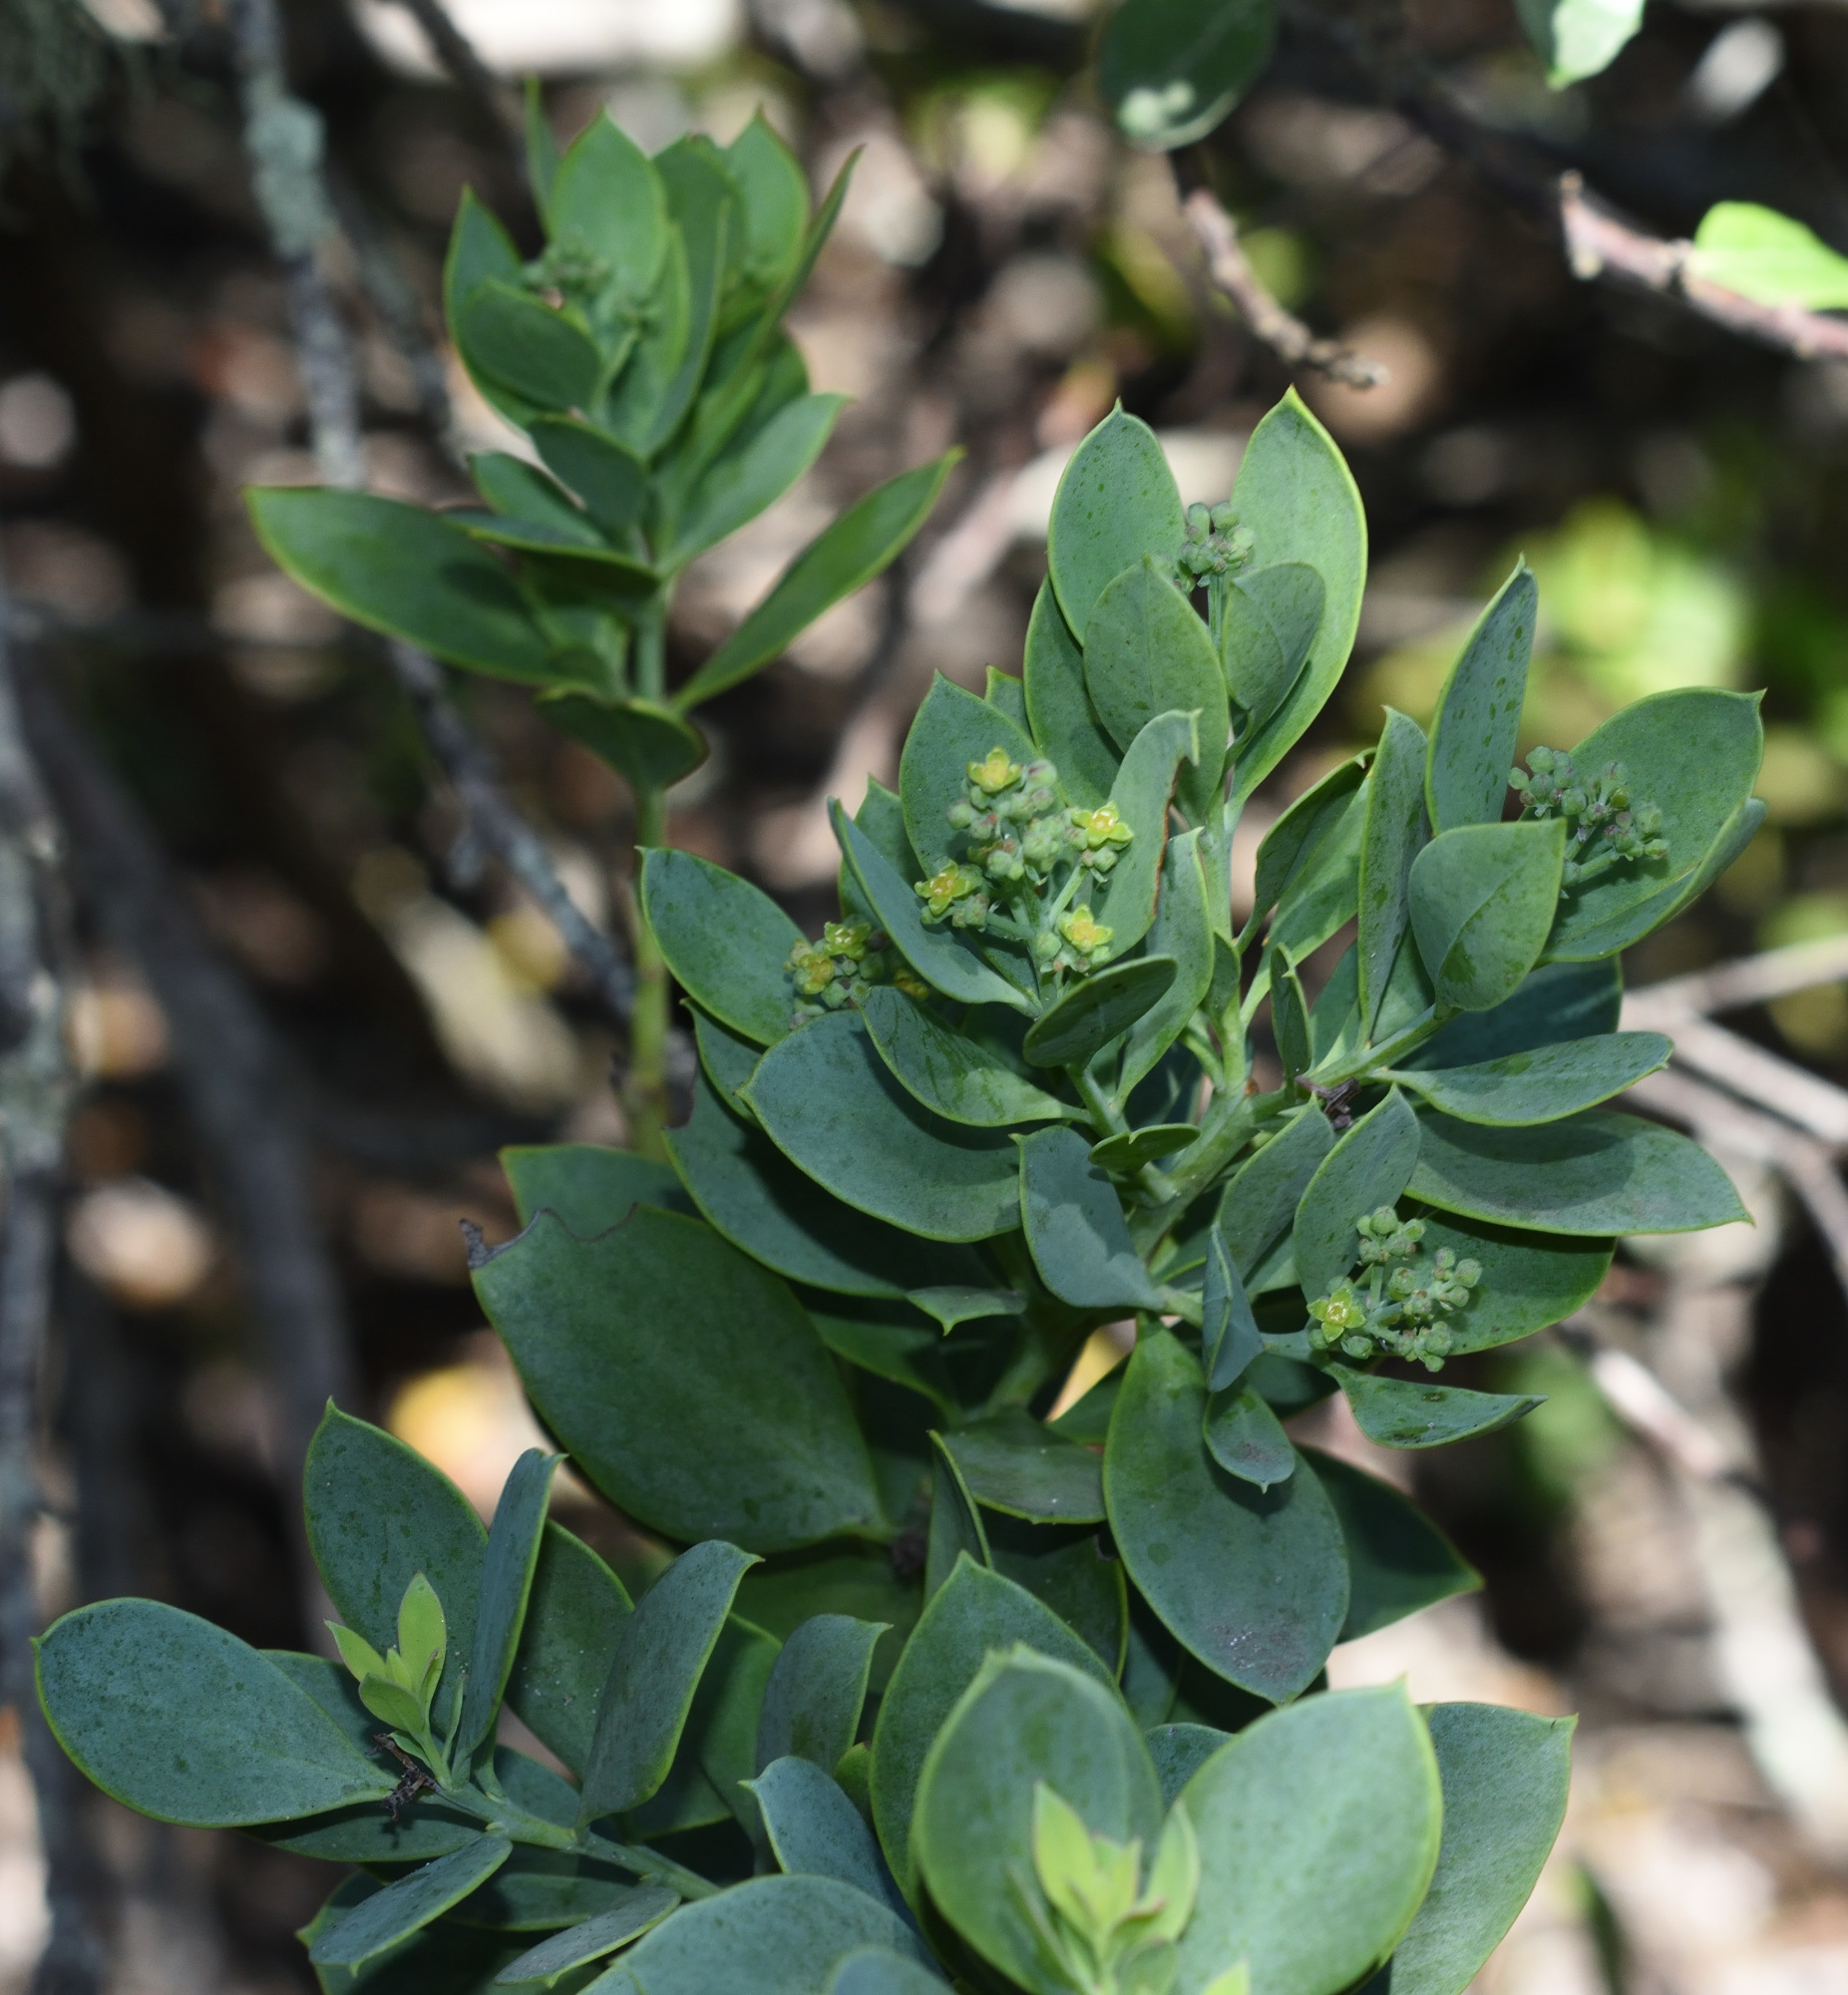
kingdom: Plantae
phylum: Tracheophyta
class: Magnoliopsida
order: Santalales
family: Santalaceae
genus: Osyris
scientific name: Osyris compressa
